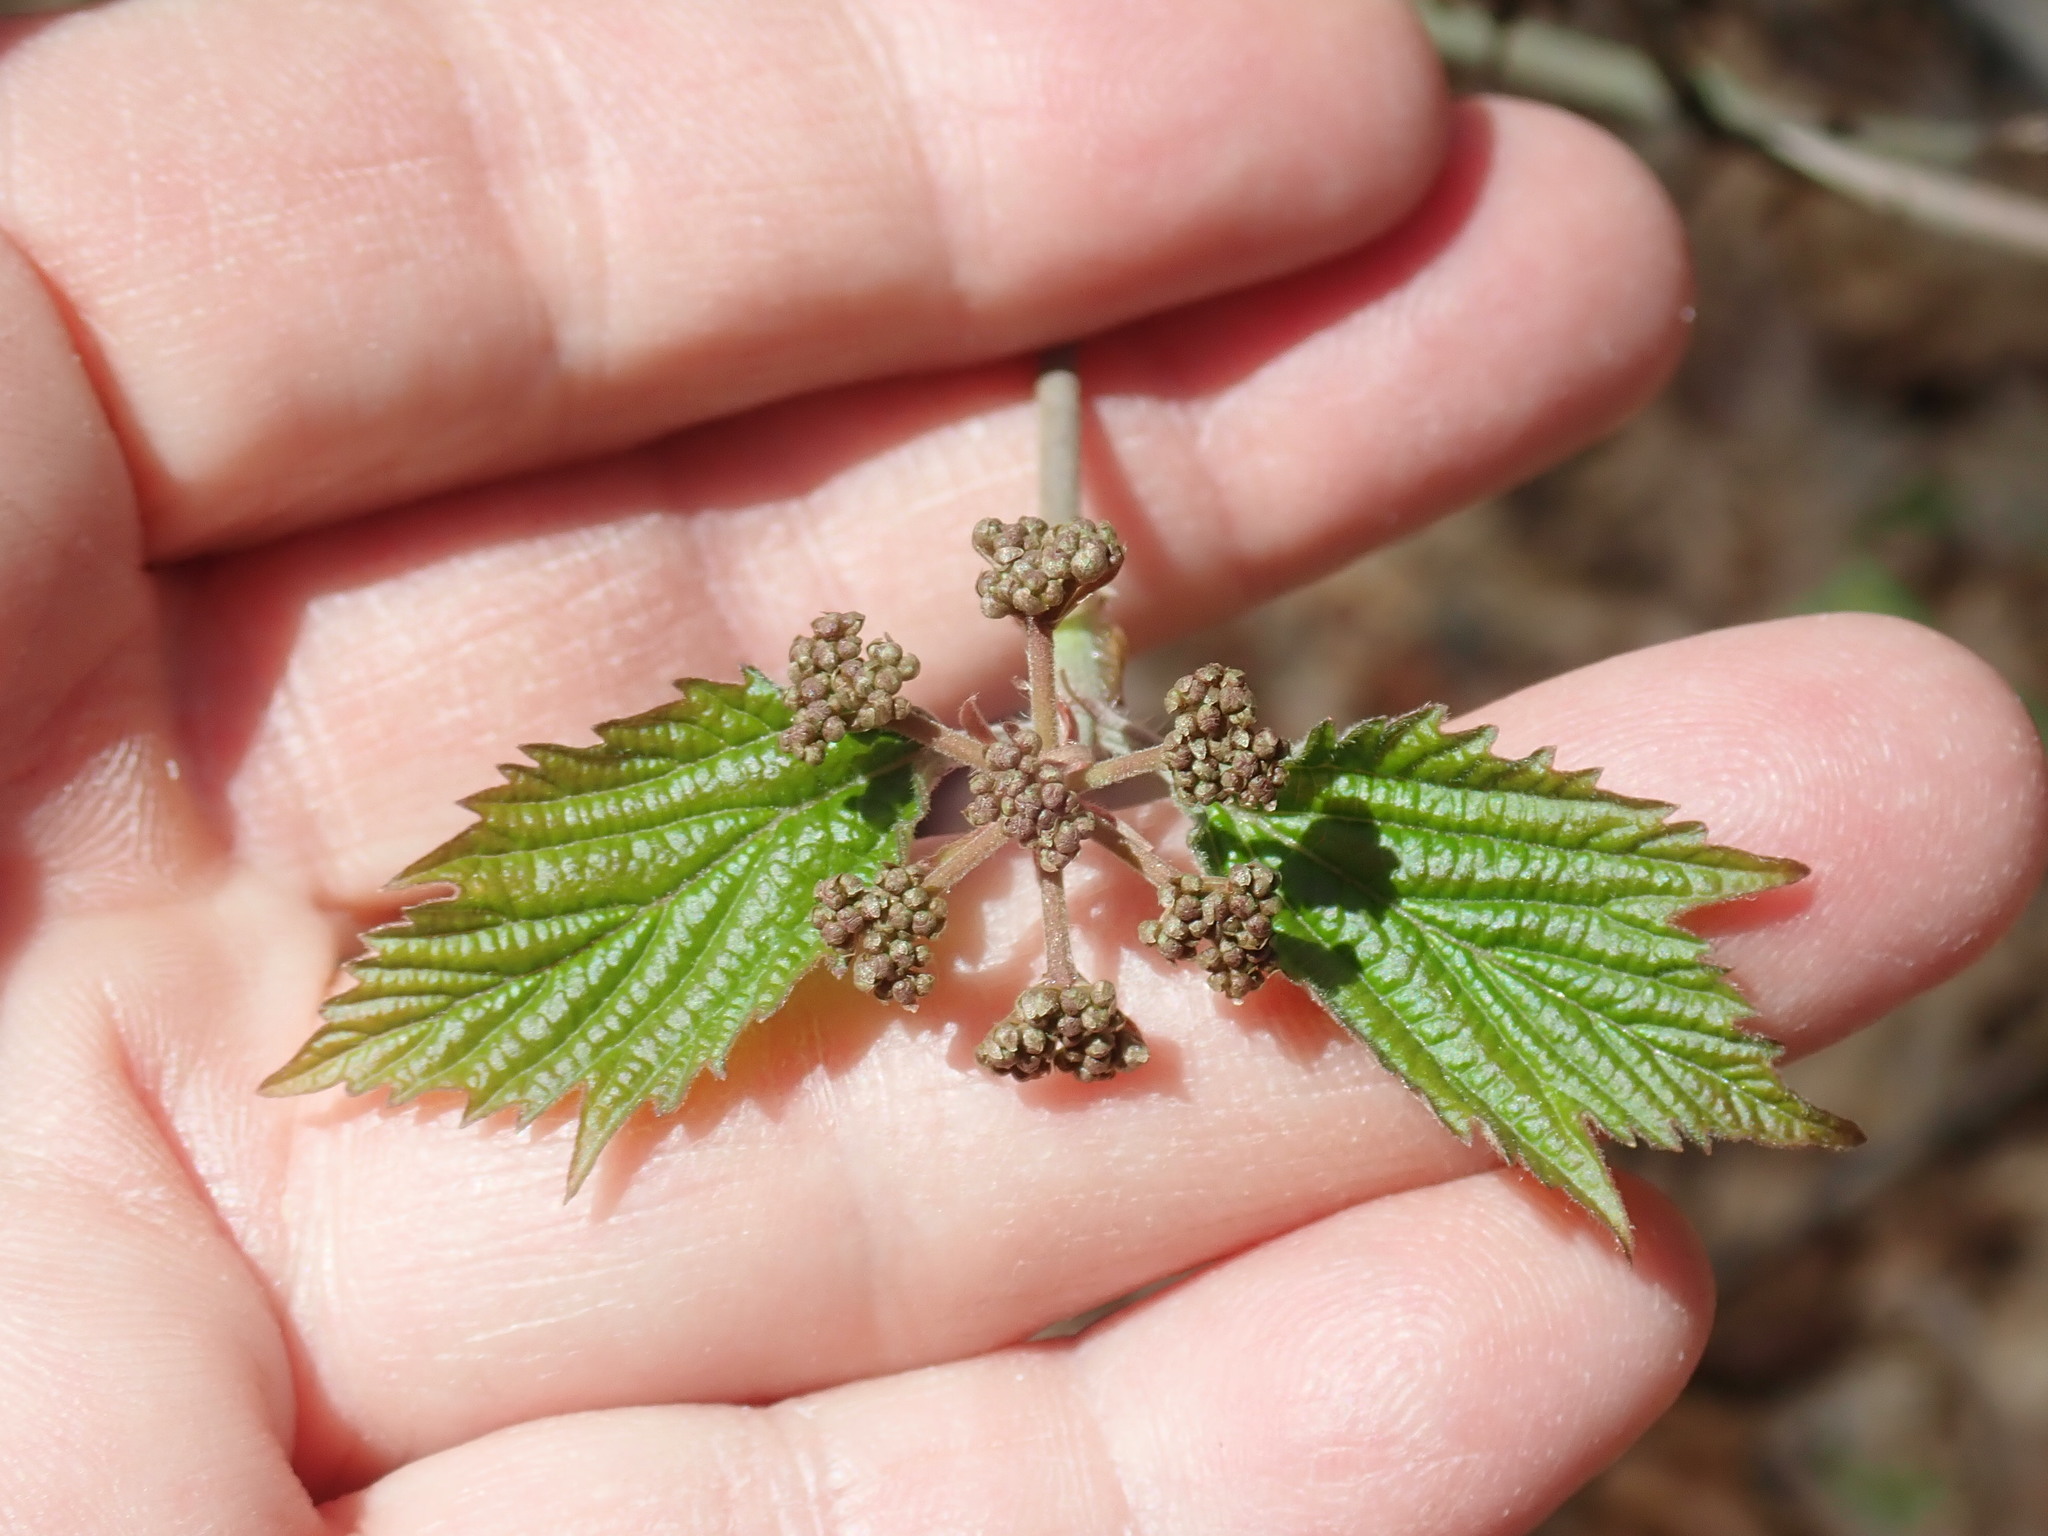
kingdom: Plantae
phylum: Tracheophyta
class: Magnoliopsida
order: Dipsacales
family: Viburnaceae
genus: Viburnum
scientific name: Viburnum acerifolium
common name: Dockmackie
